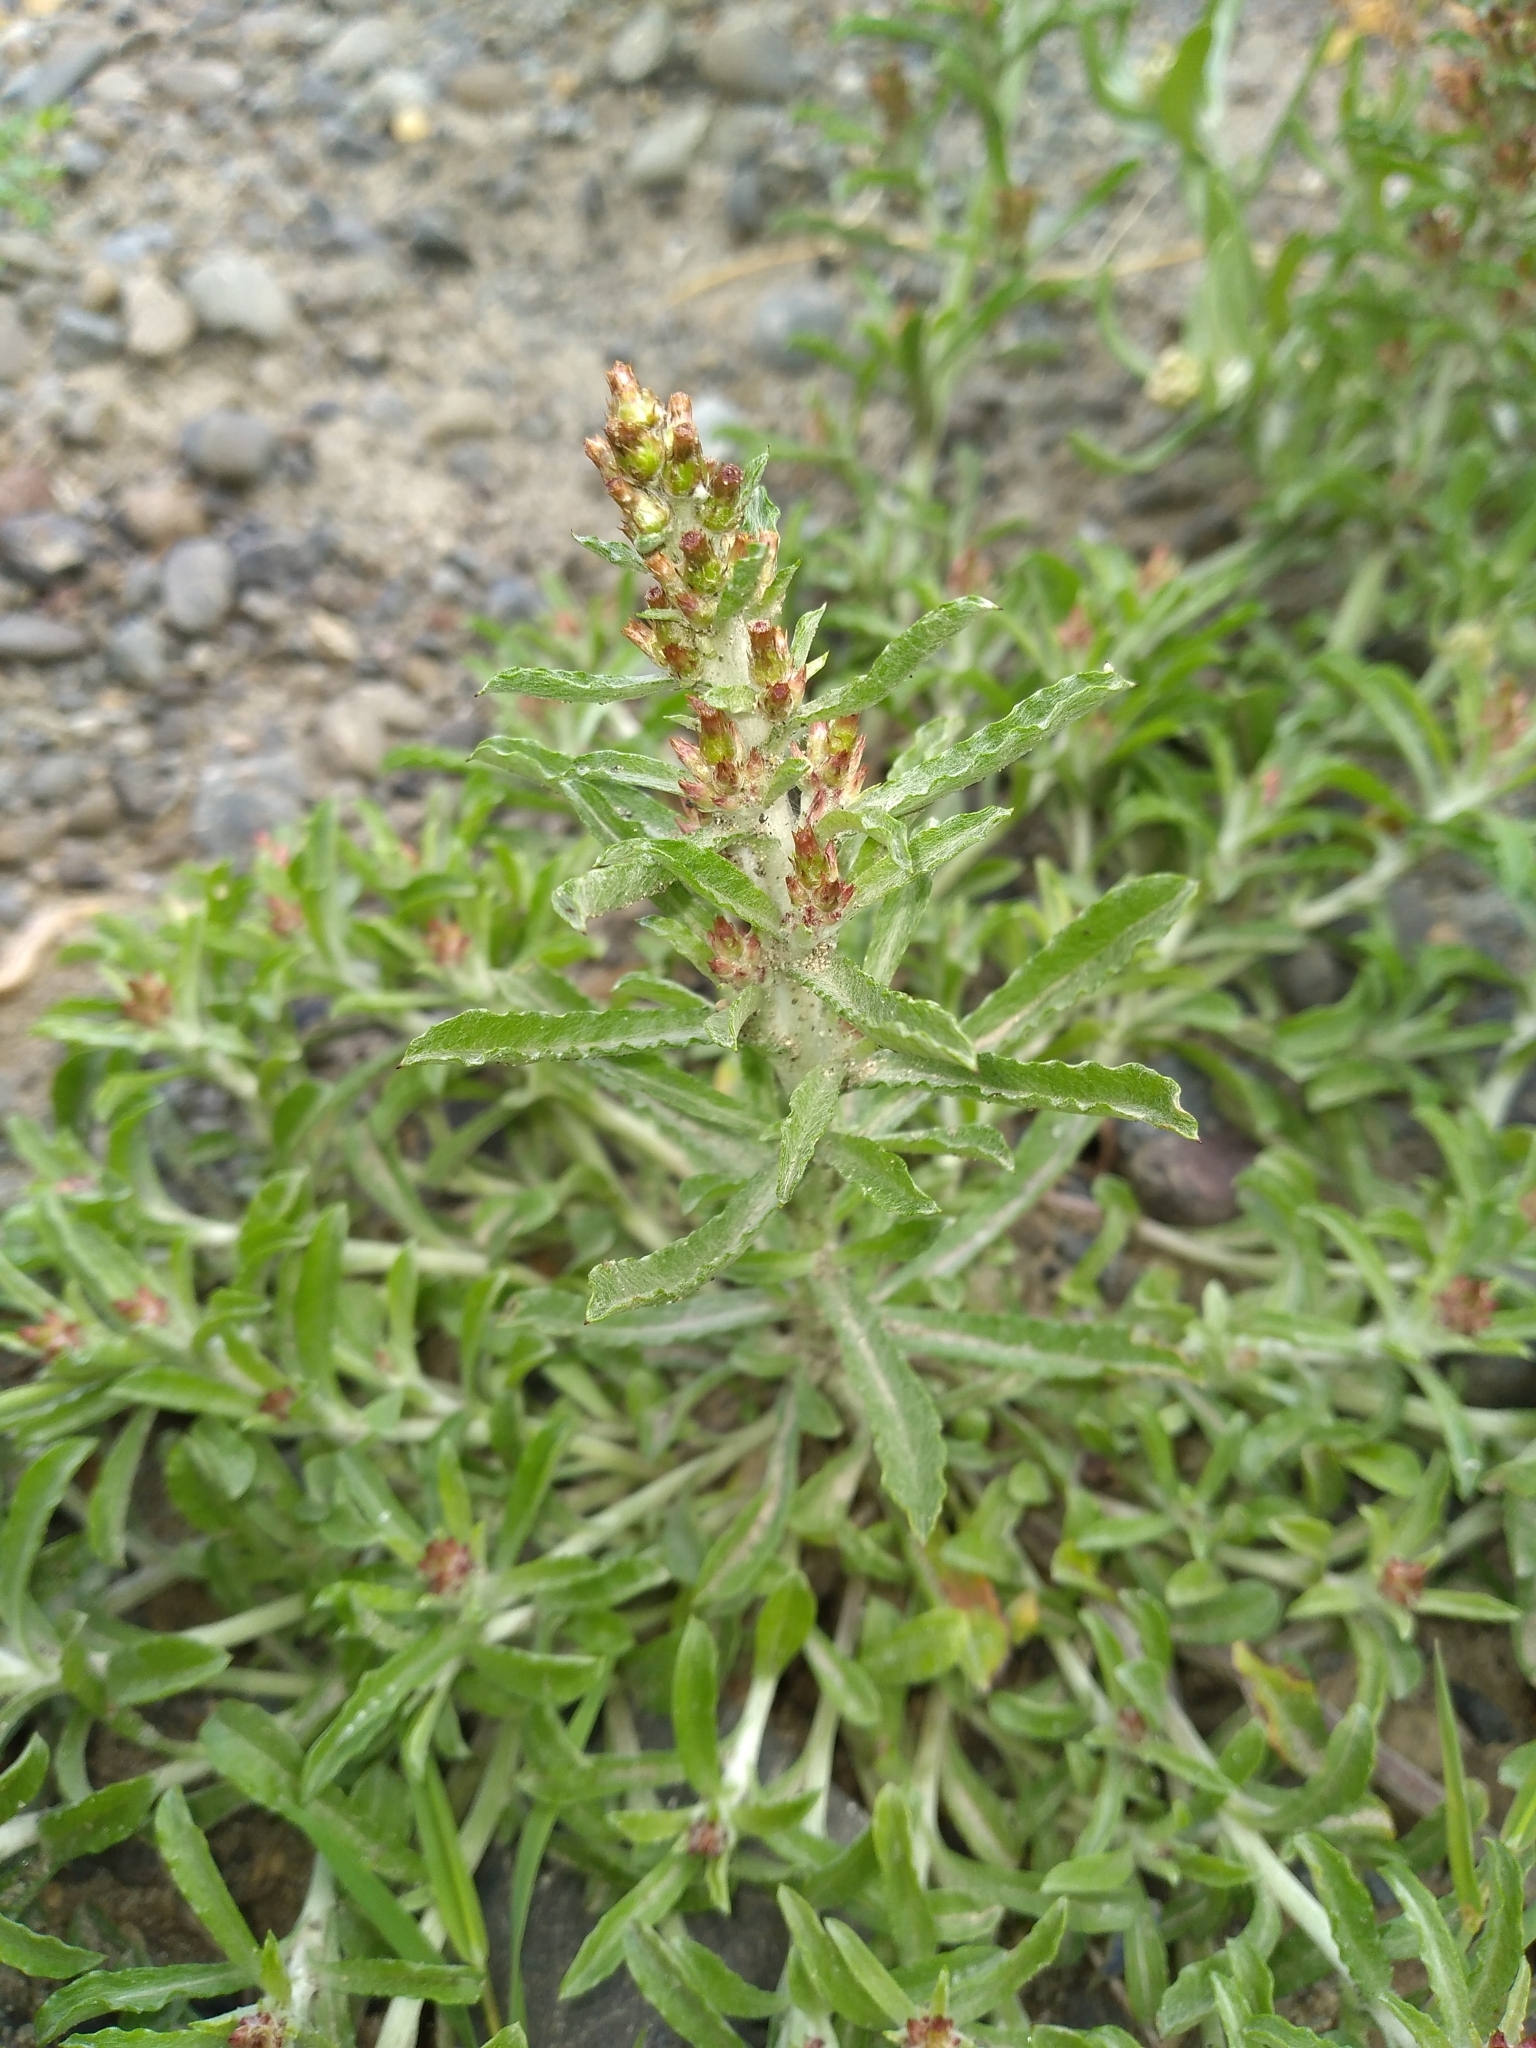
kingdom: Plantae
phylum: Tracheophyta
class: Magnoliopsida
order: Asterales
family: Asteraceae
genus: Gamochaeta
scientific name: Gamochaeta antillana
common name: Delicate everlasting
